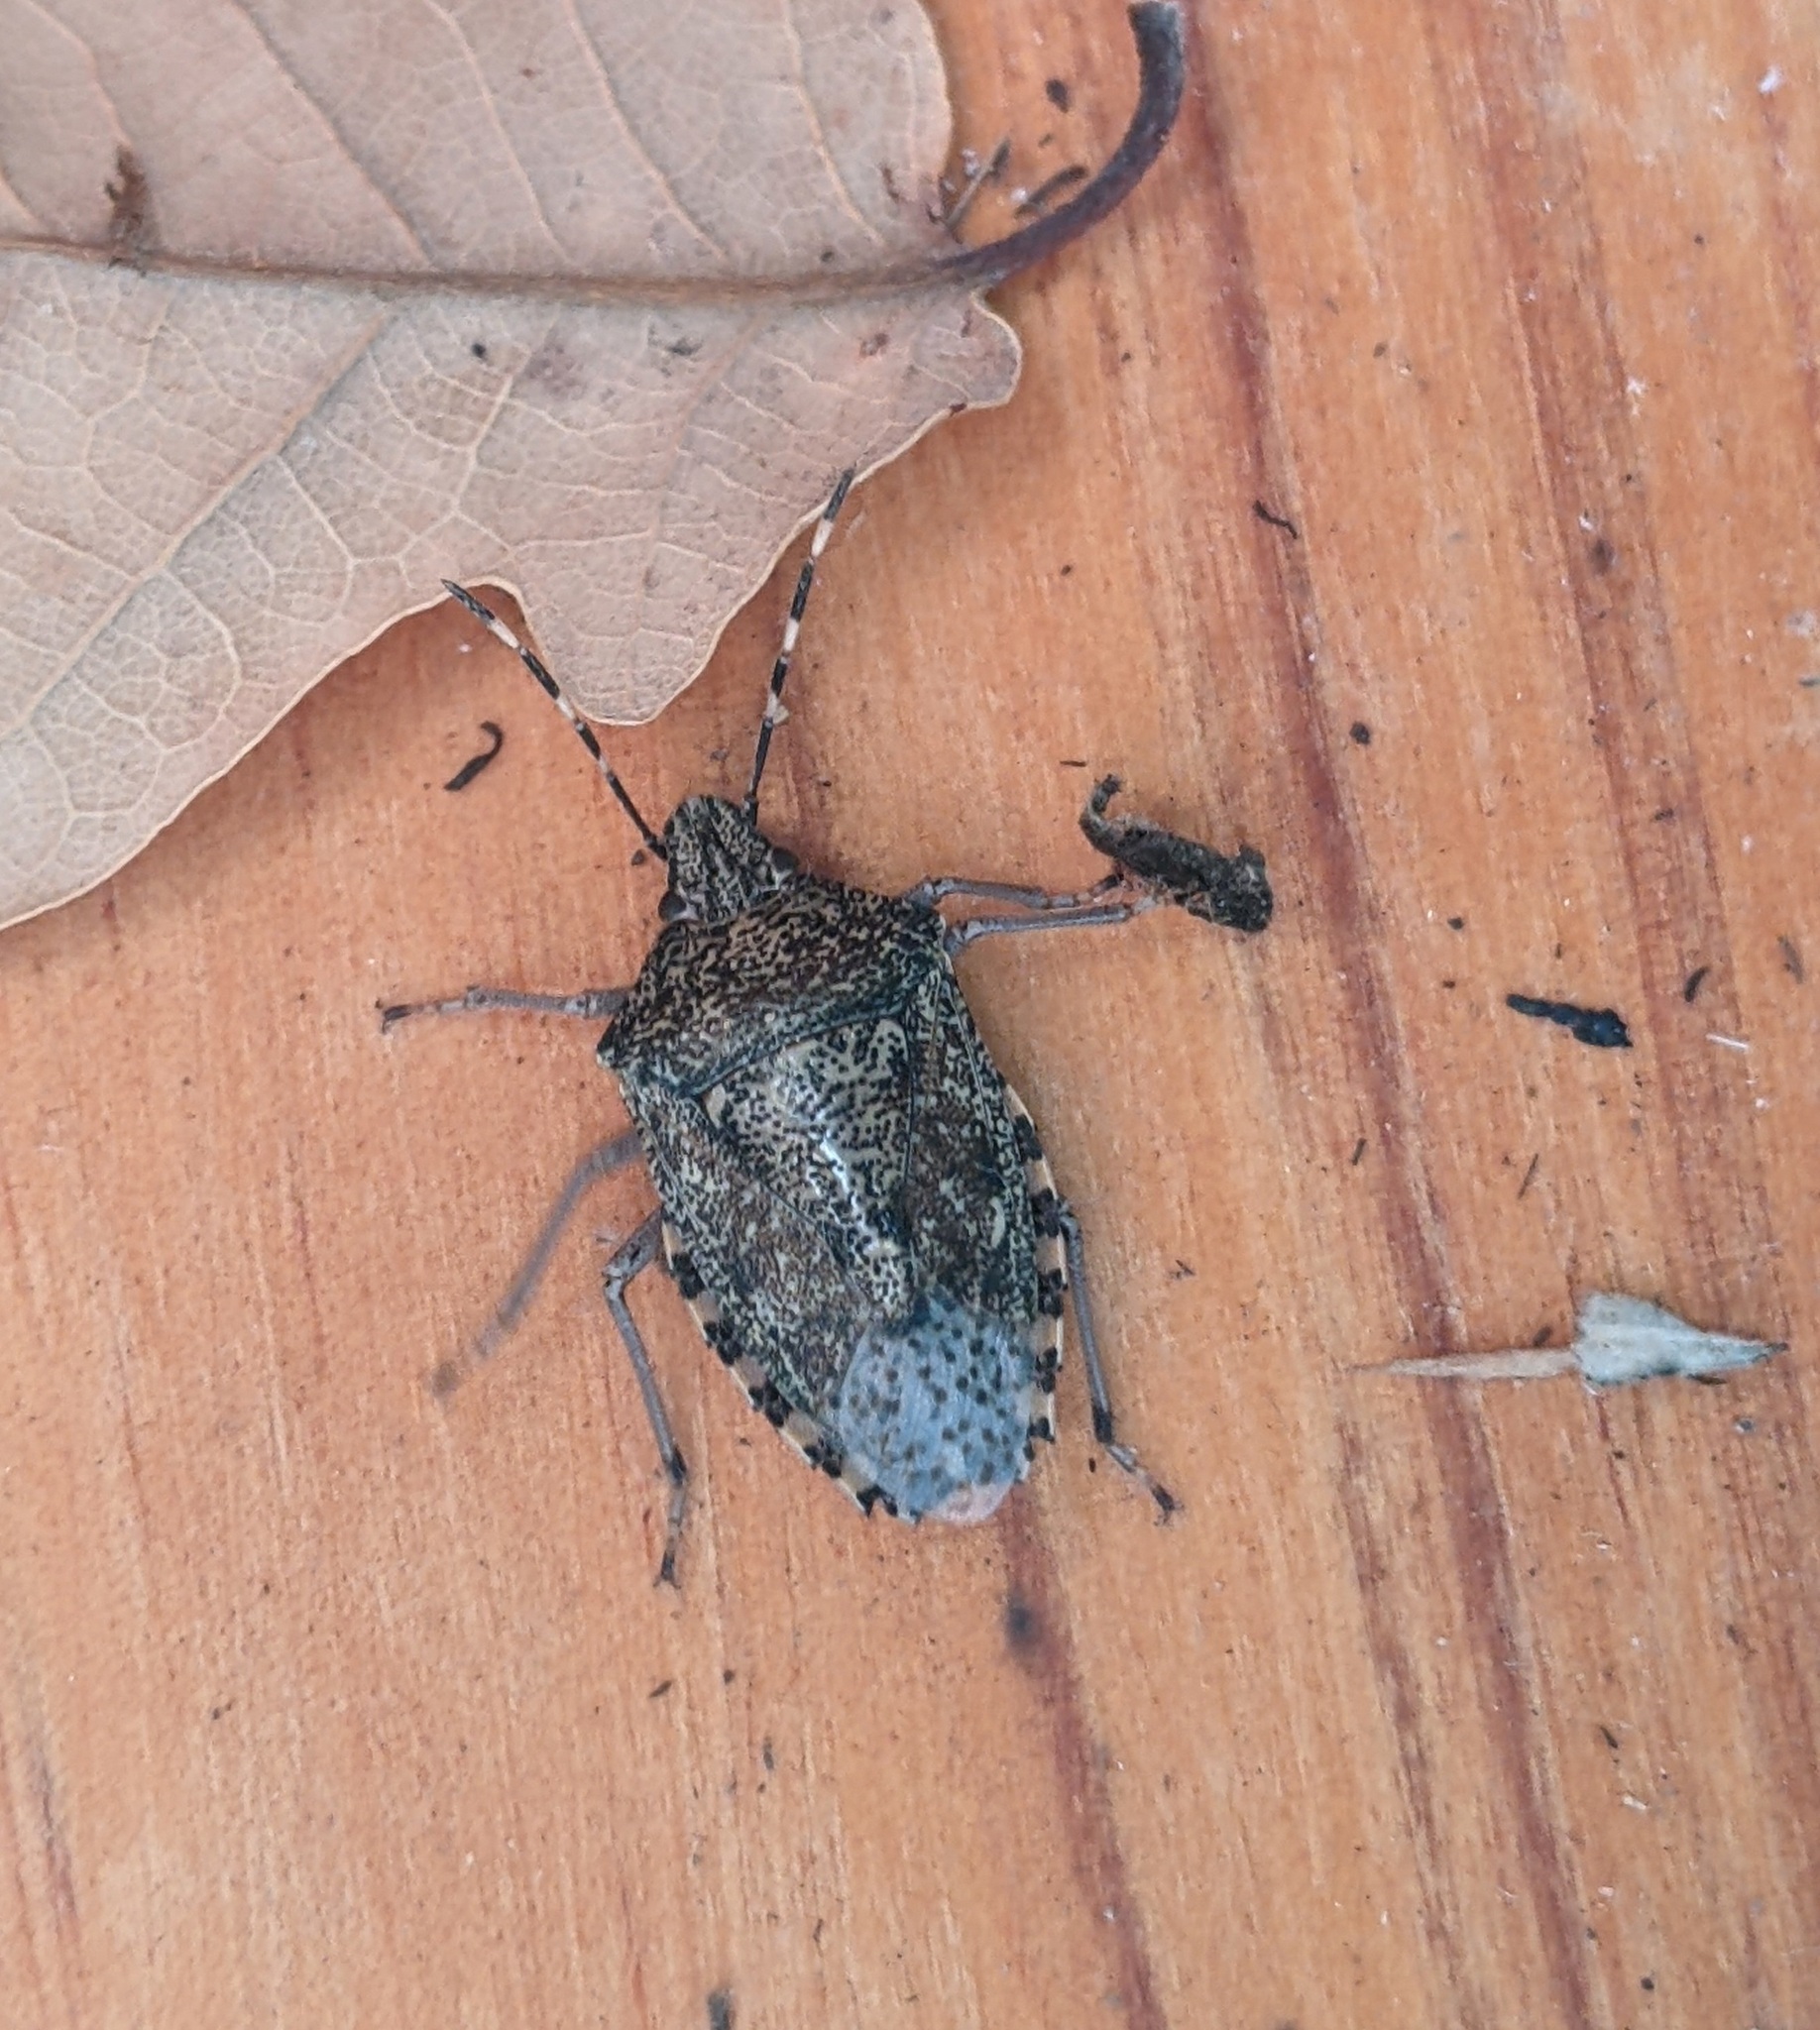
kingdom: Animalia
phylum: Arthropoda
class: Insecta
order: Hemiptera
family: Pentatomidae
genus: Rhaphigaster
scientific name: Rhaphigaster nebulosa
